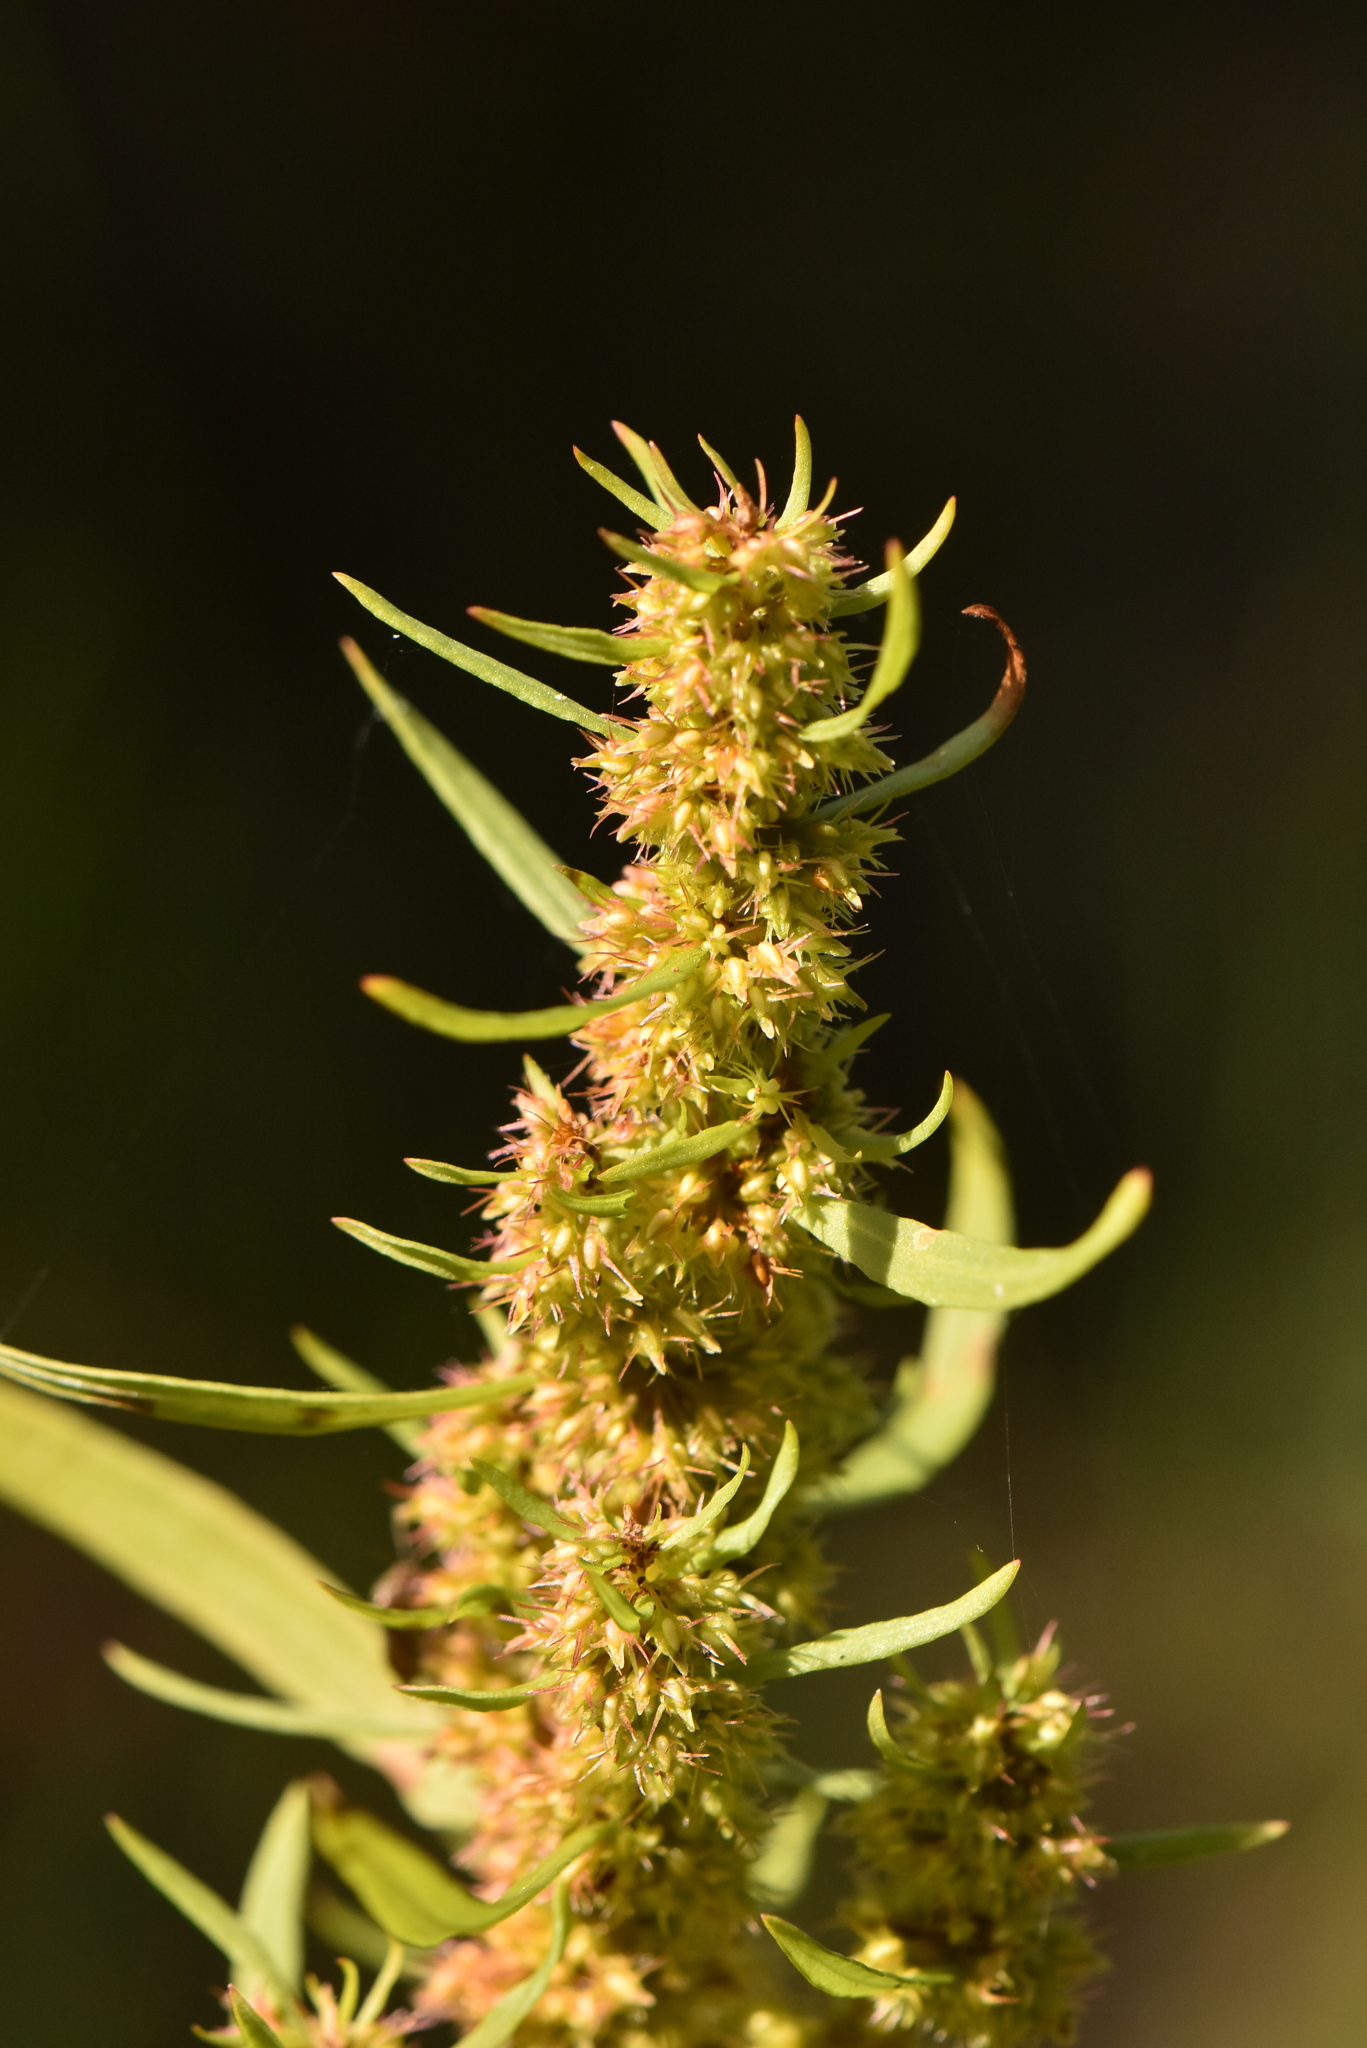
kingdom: Plantae
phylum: Tracheophyta
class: Magnoliopsida
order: Caryophyllales
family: Polygonaceae
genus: Rumex
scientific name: Rumex maritimus
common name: Golden dock
